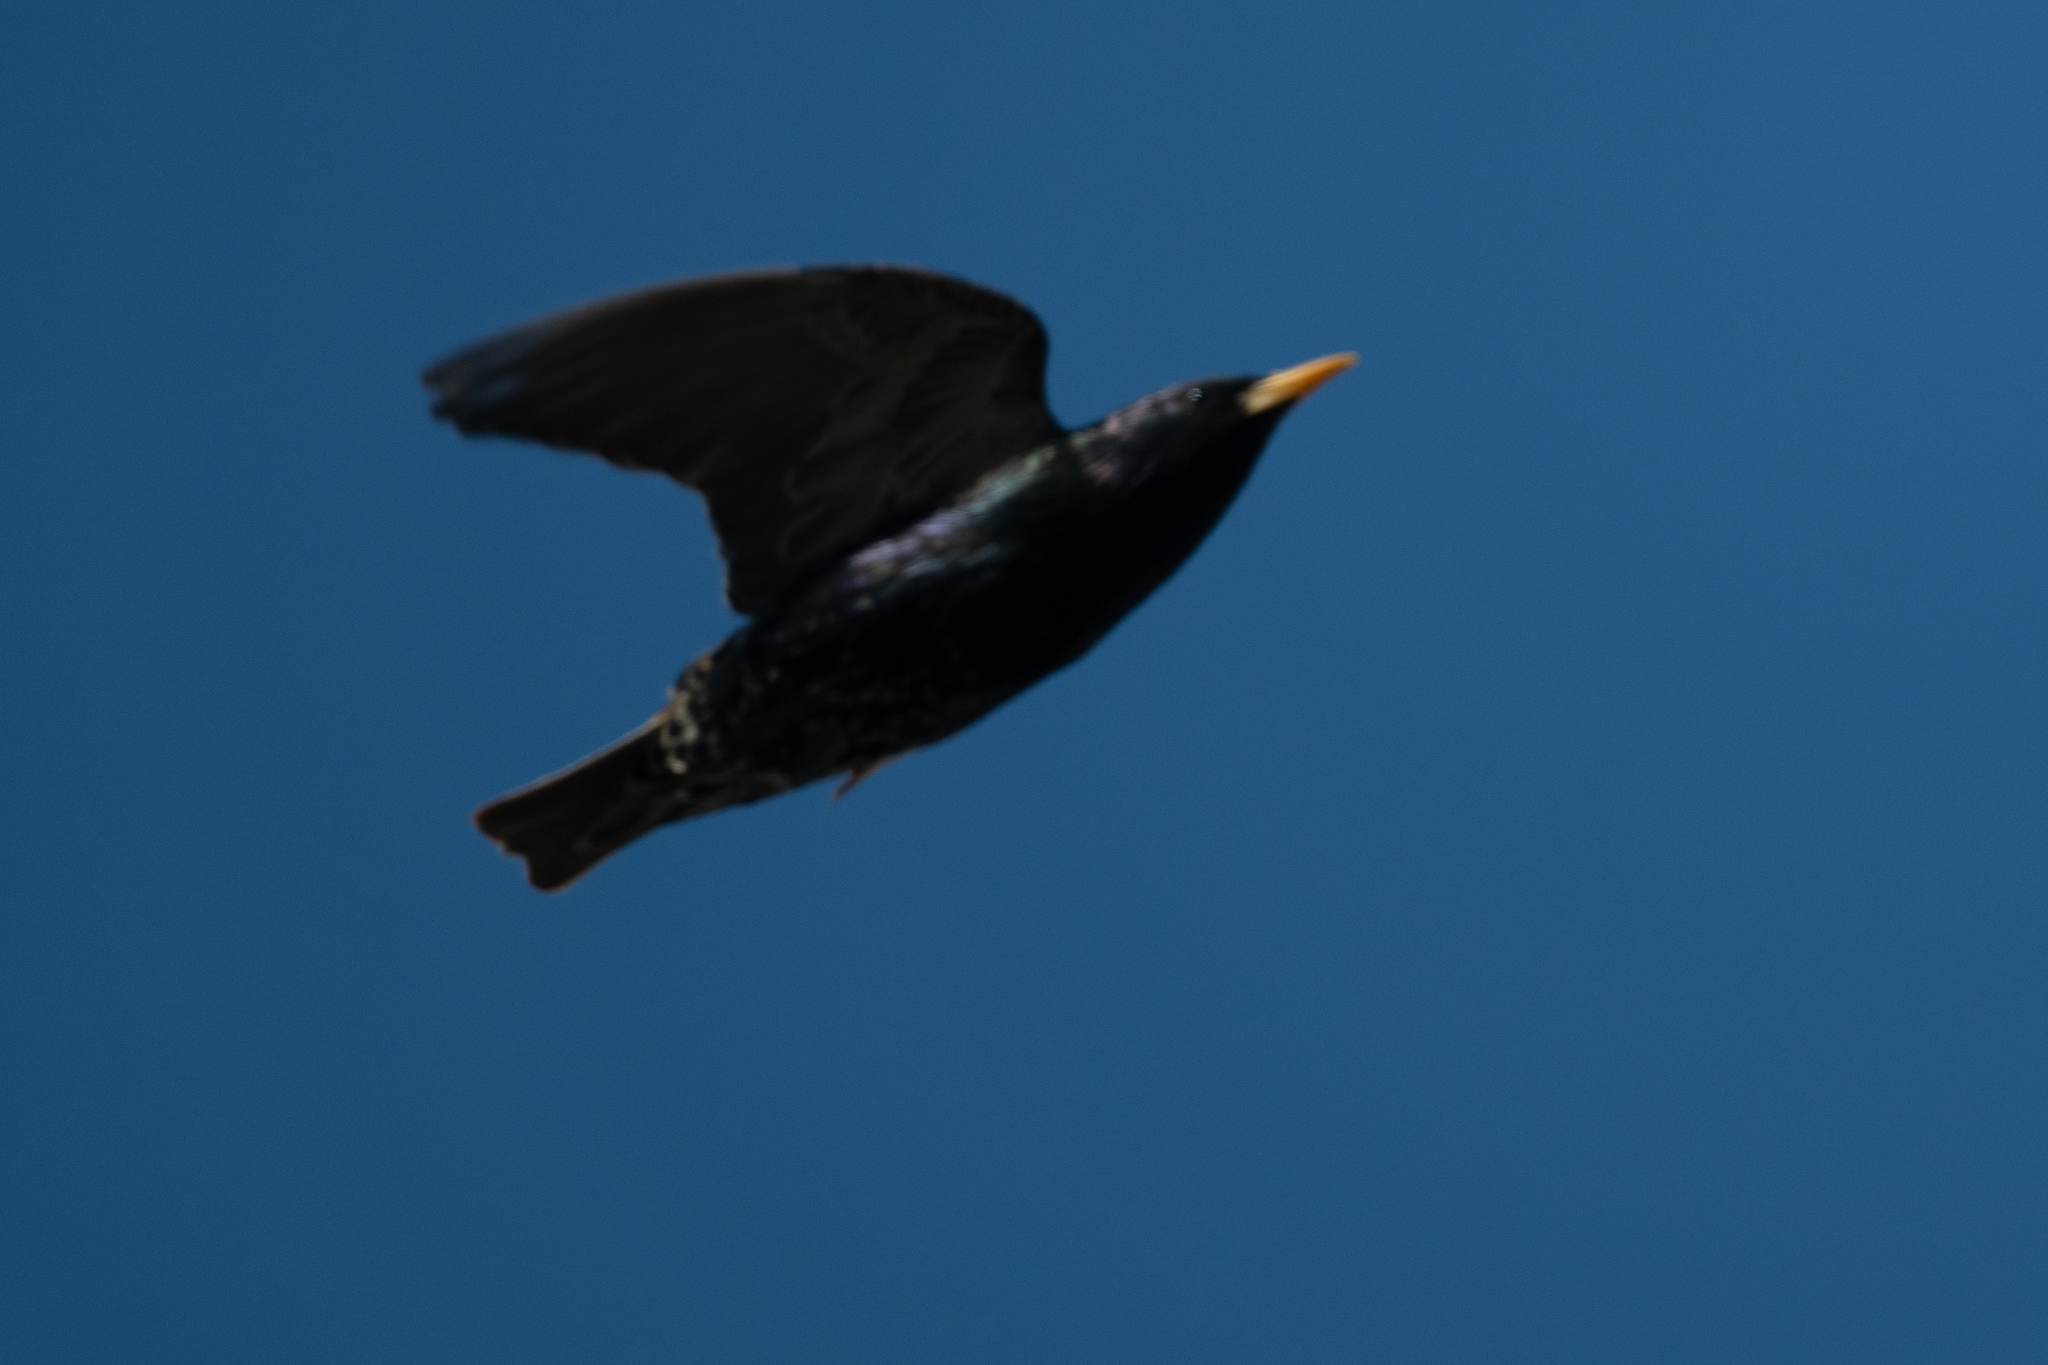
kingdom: Animalia
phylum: Chordata
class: Aves
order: Passeriformes
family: Sturnidae
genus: Sturnus
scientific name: Sturnus vulgaris
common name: Common starling
